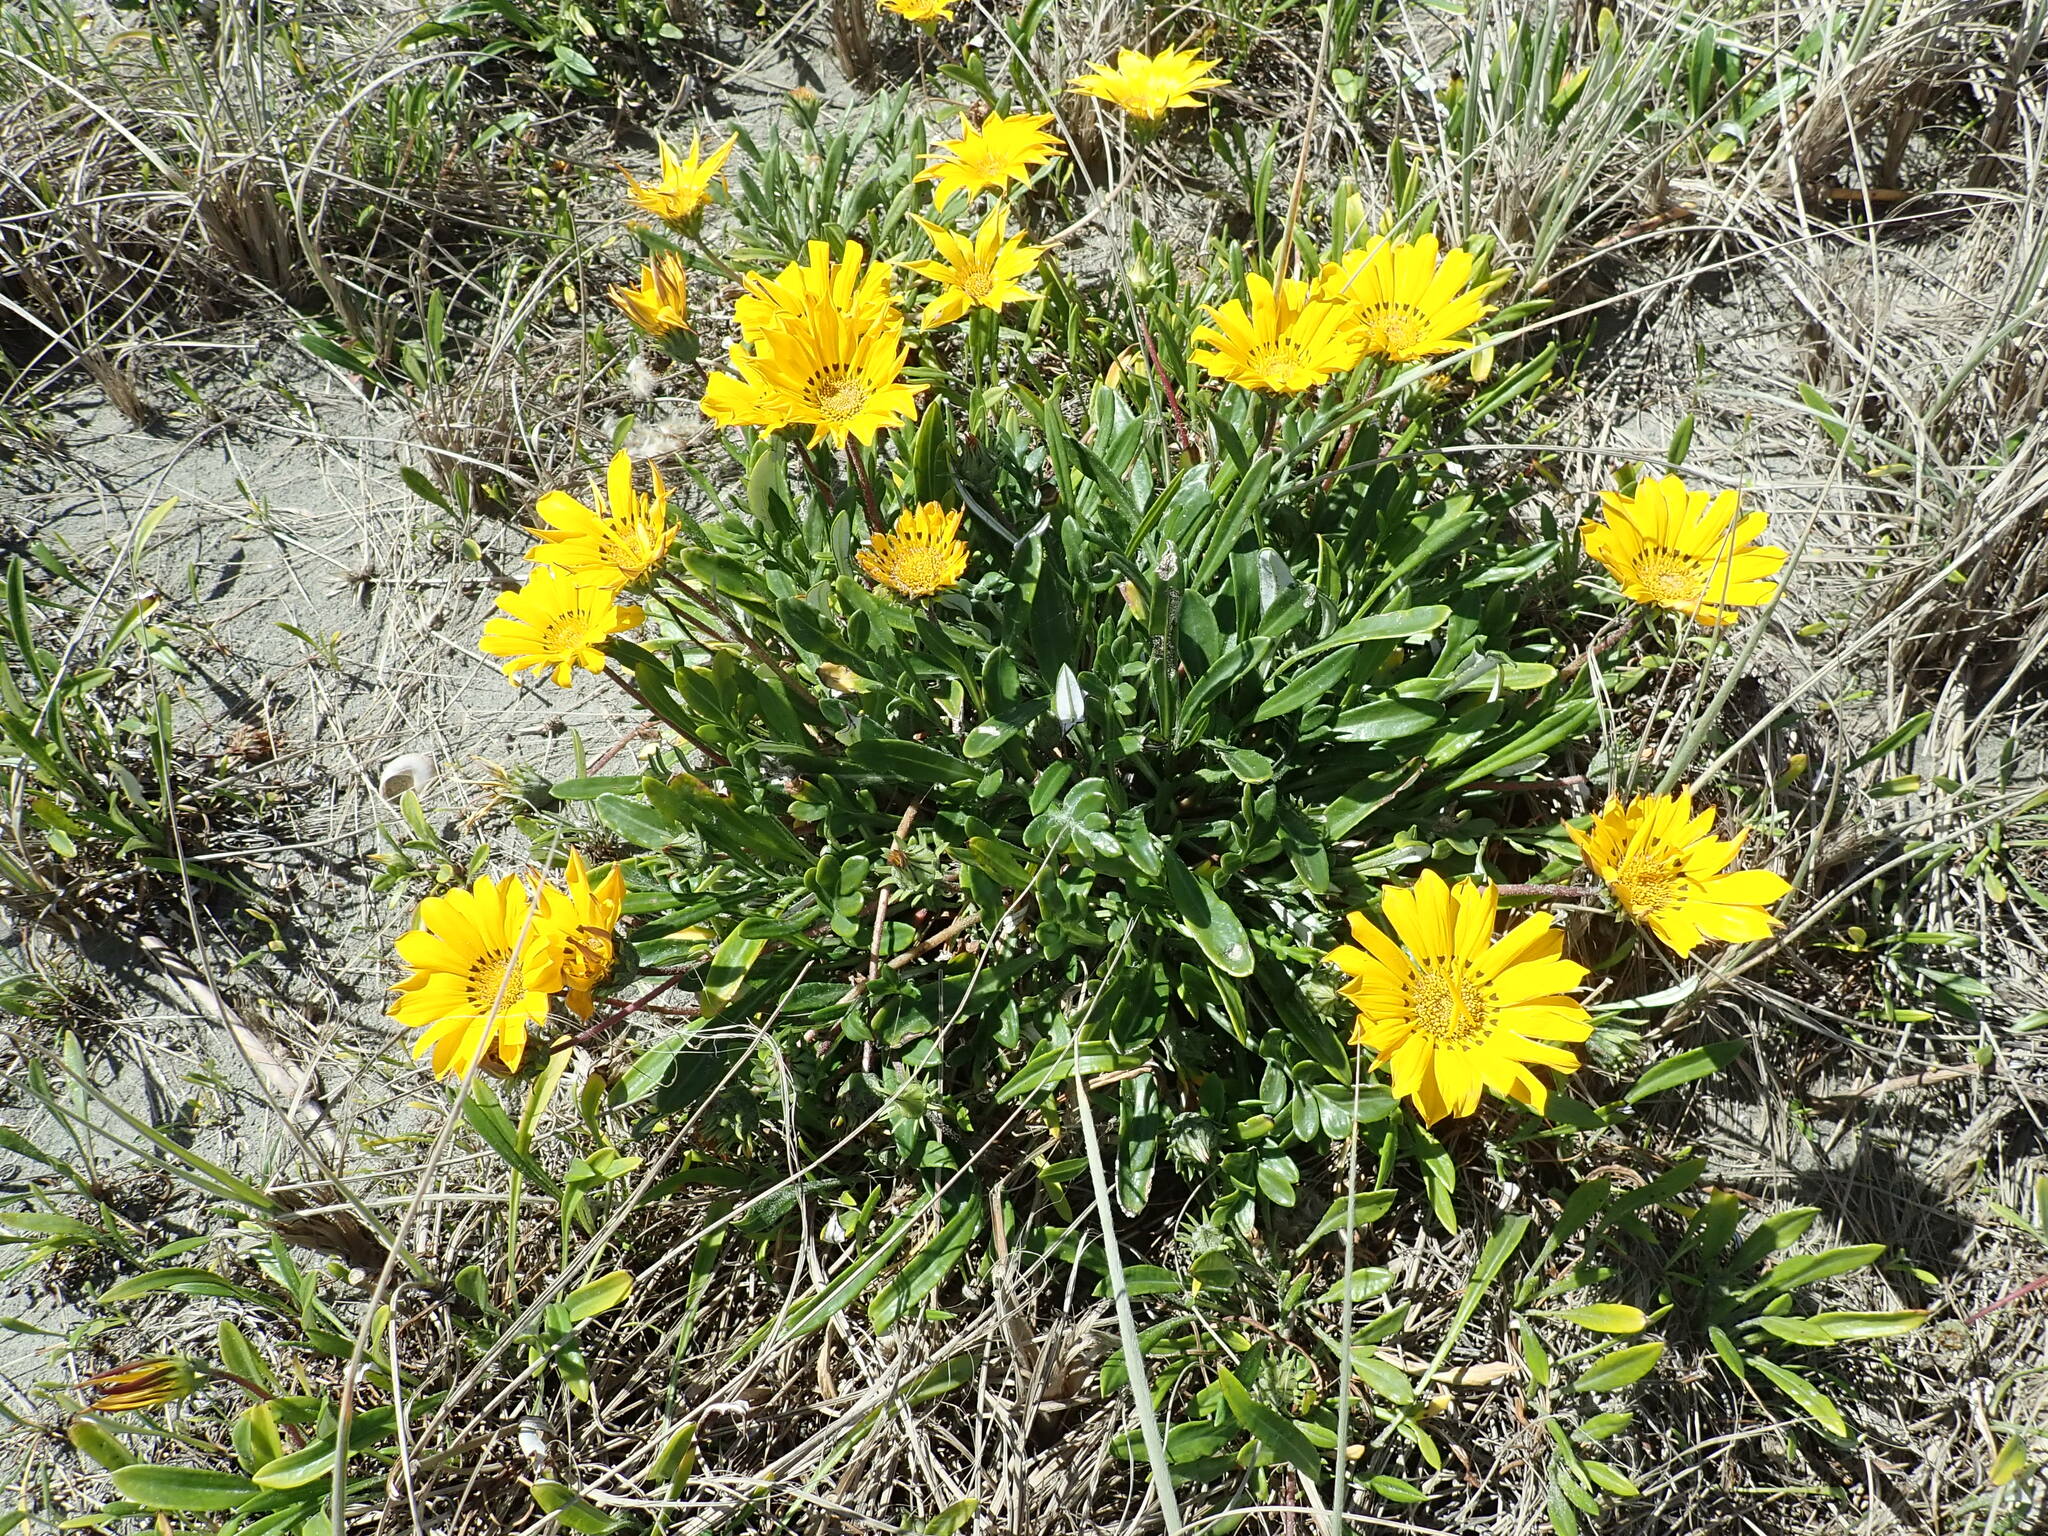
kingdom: Plantae
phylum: Tracheophyta
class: Magnoliopsida
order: Asterales
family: Asteraceae
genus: Gazania
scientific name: Gazania splendens
